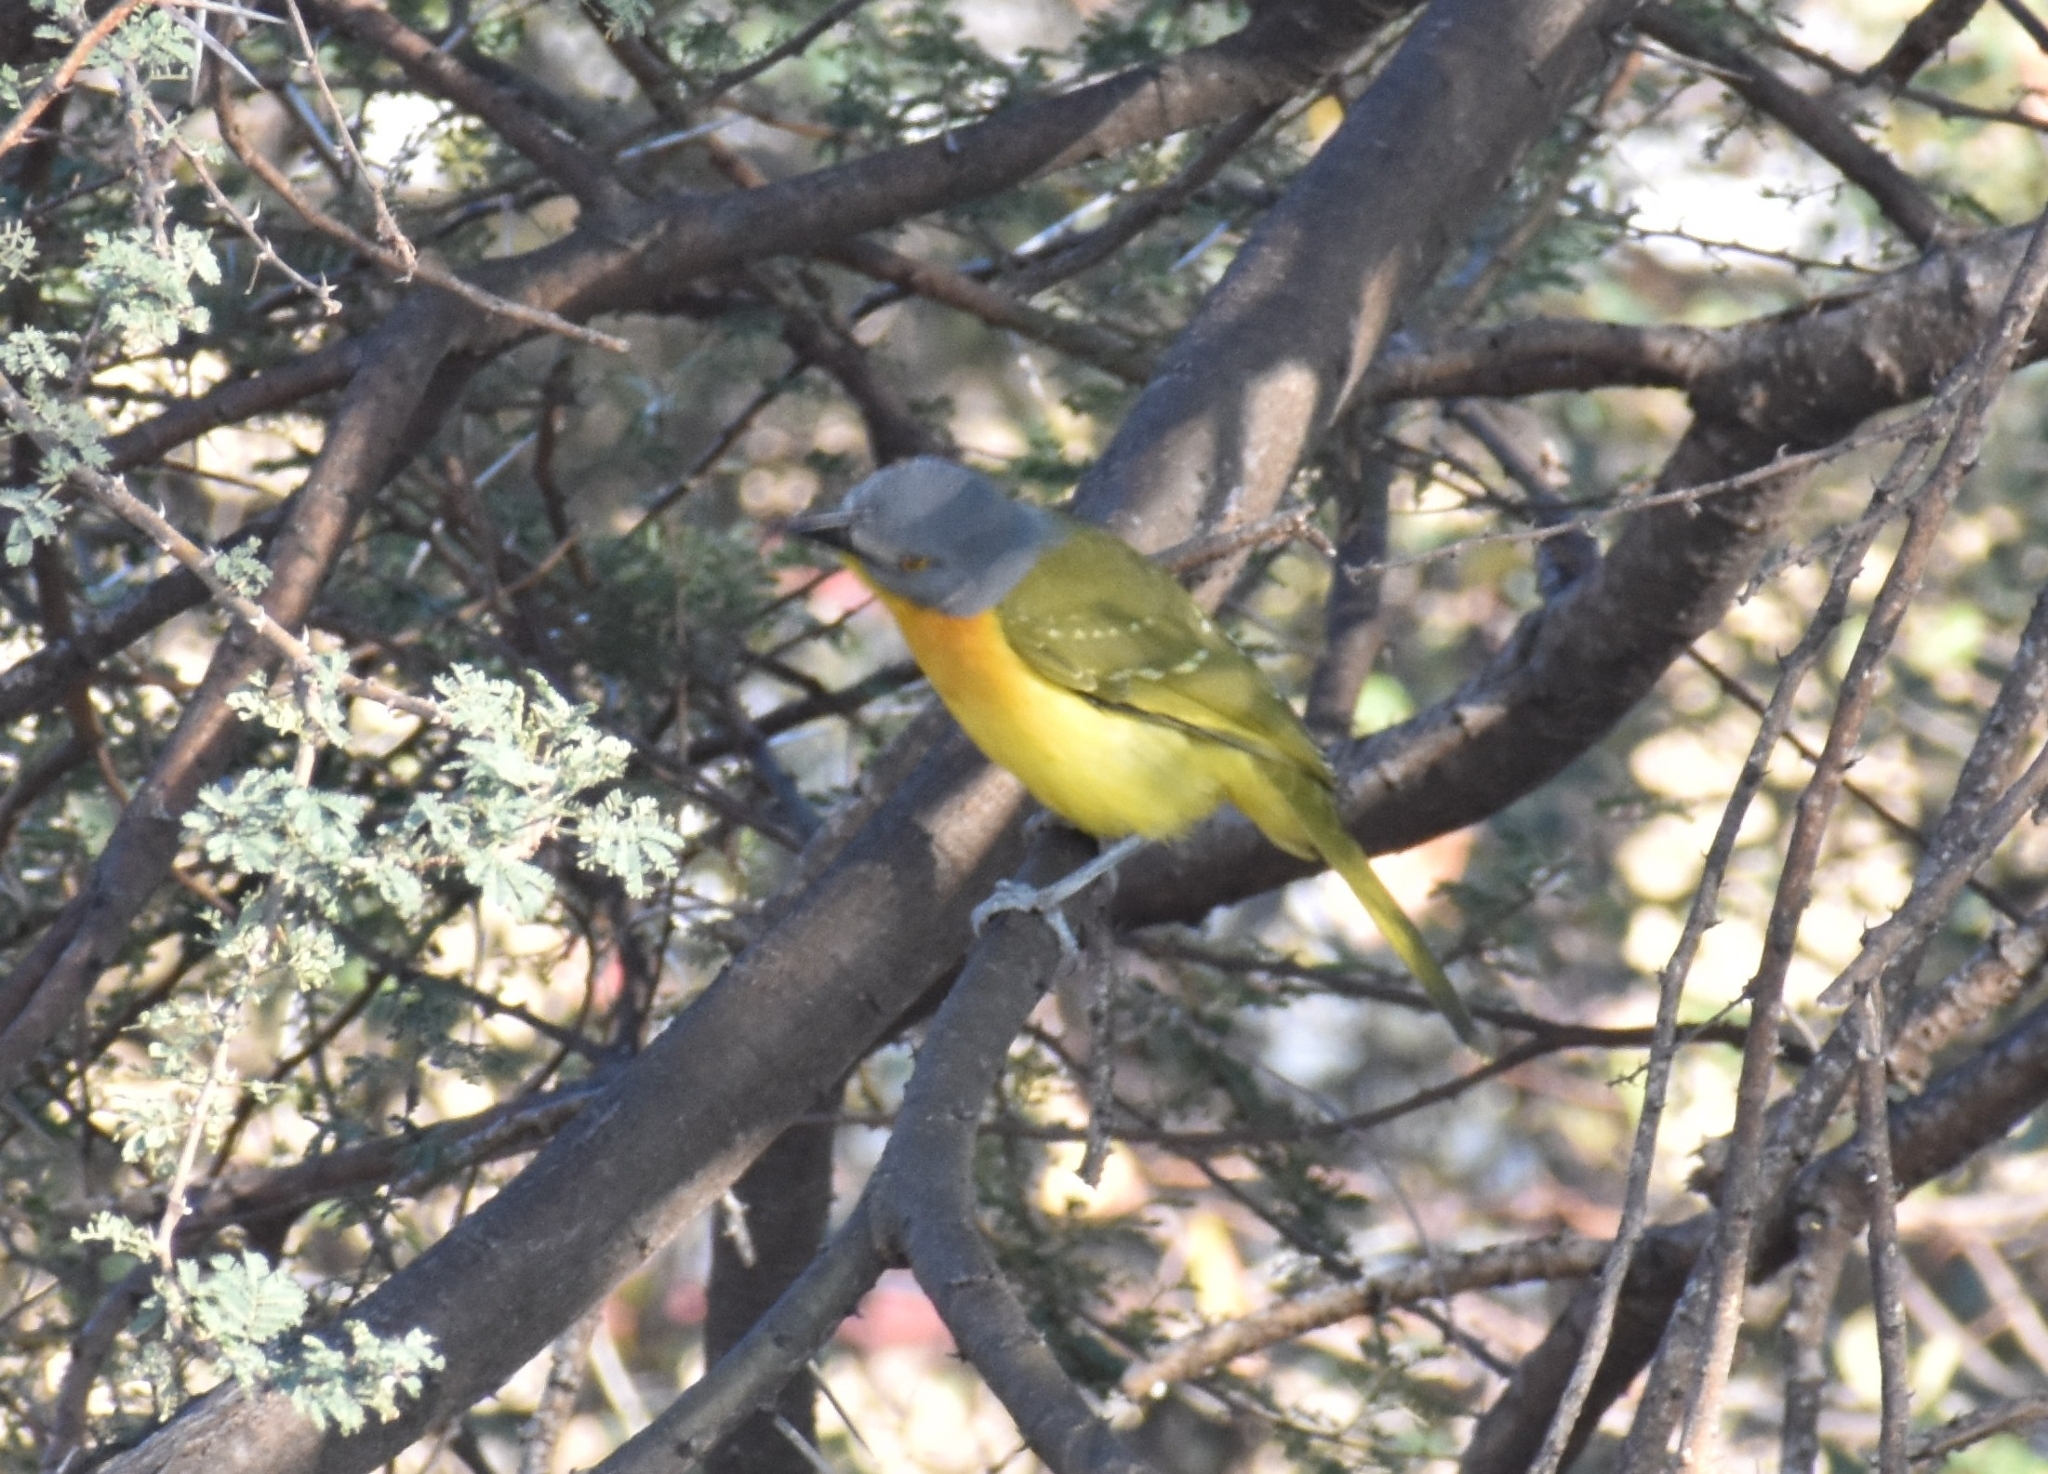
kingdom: Animalia
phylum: Chordata
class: Aves
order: Passeriformes
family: Malaconotidae
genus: Malaconotus
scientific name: Malaconotus blanchoti
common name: Grey-headed bushshrike
